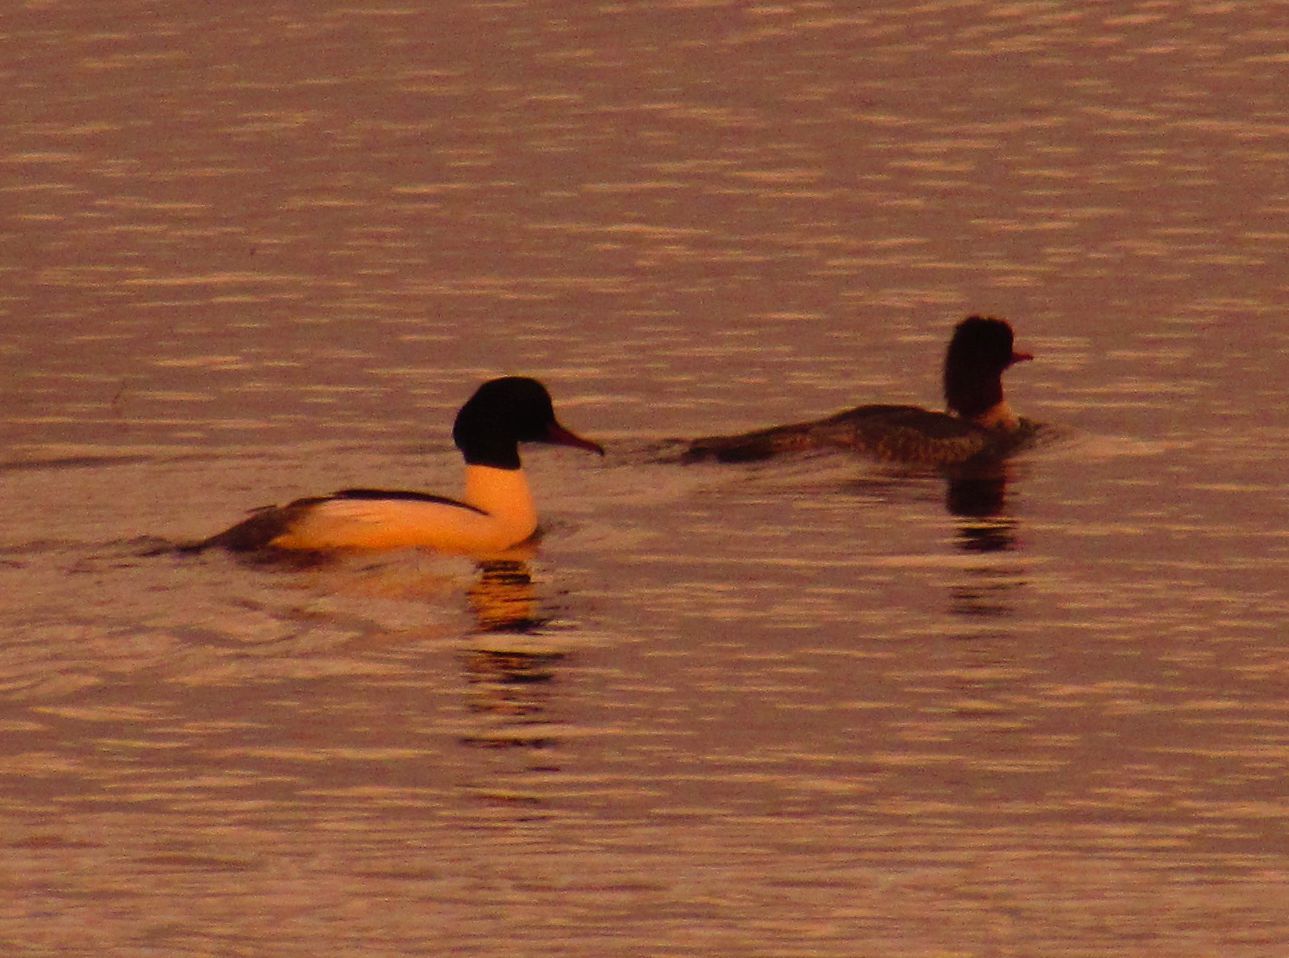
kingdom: Animalia
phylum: Chordata
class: Aves
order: Anseriformes
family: Anatidae
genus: Mergus
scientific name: Mergus merganser
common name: Common merganser
